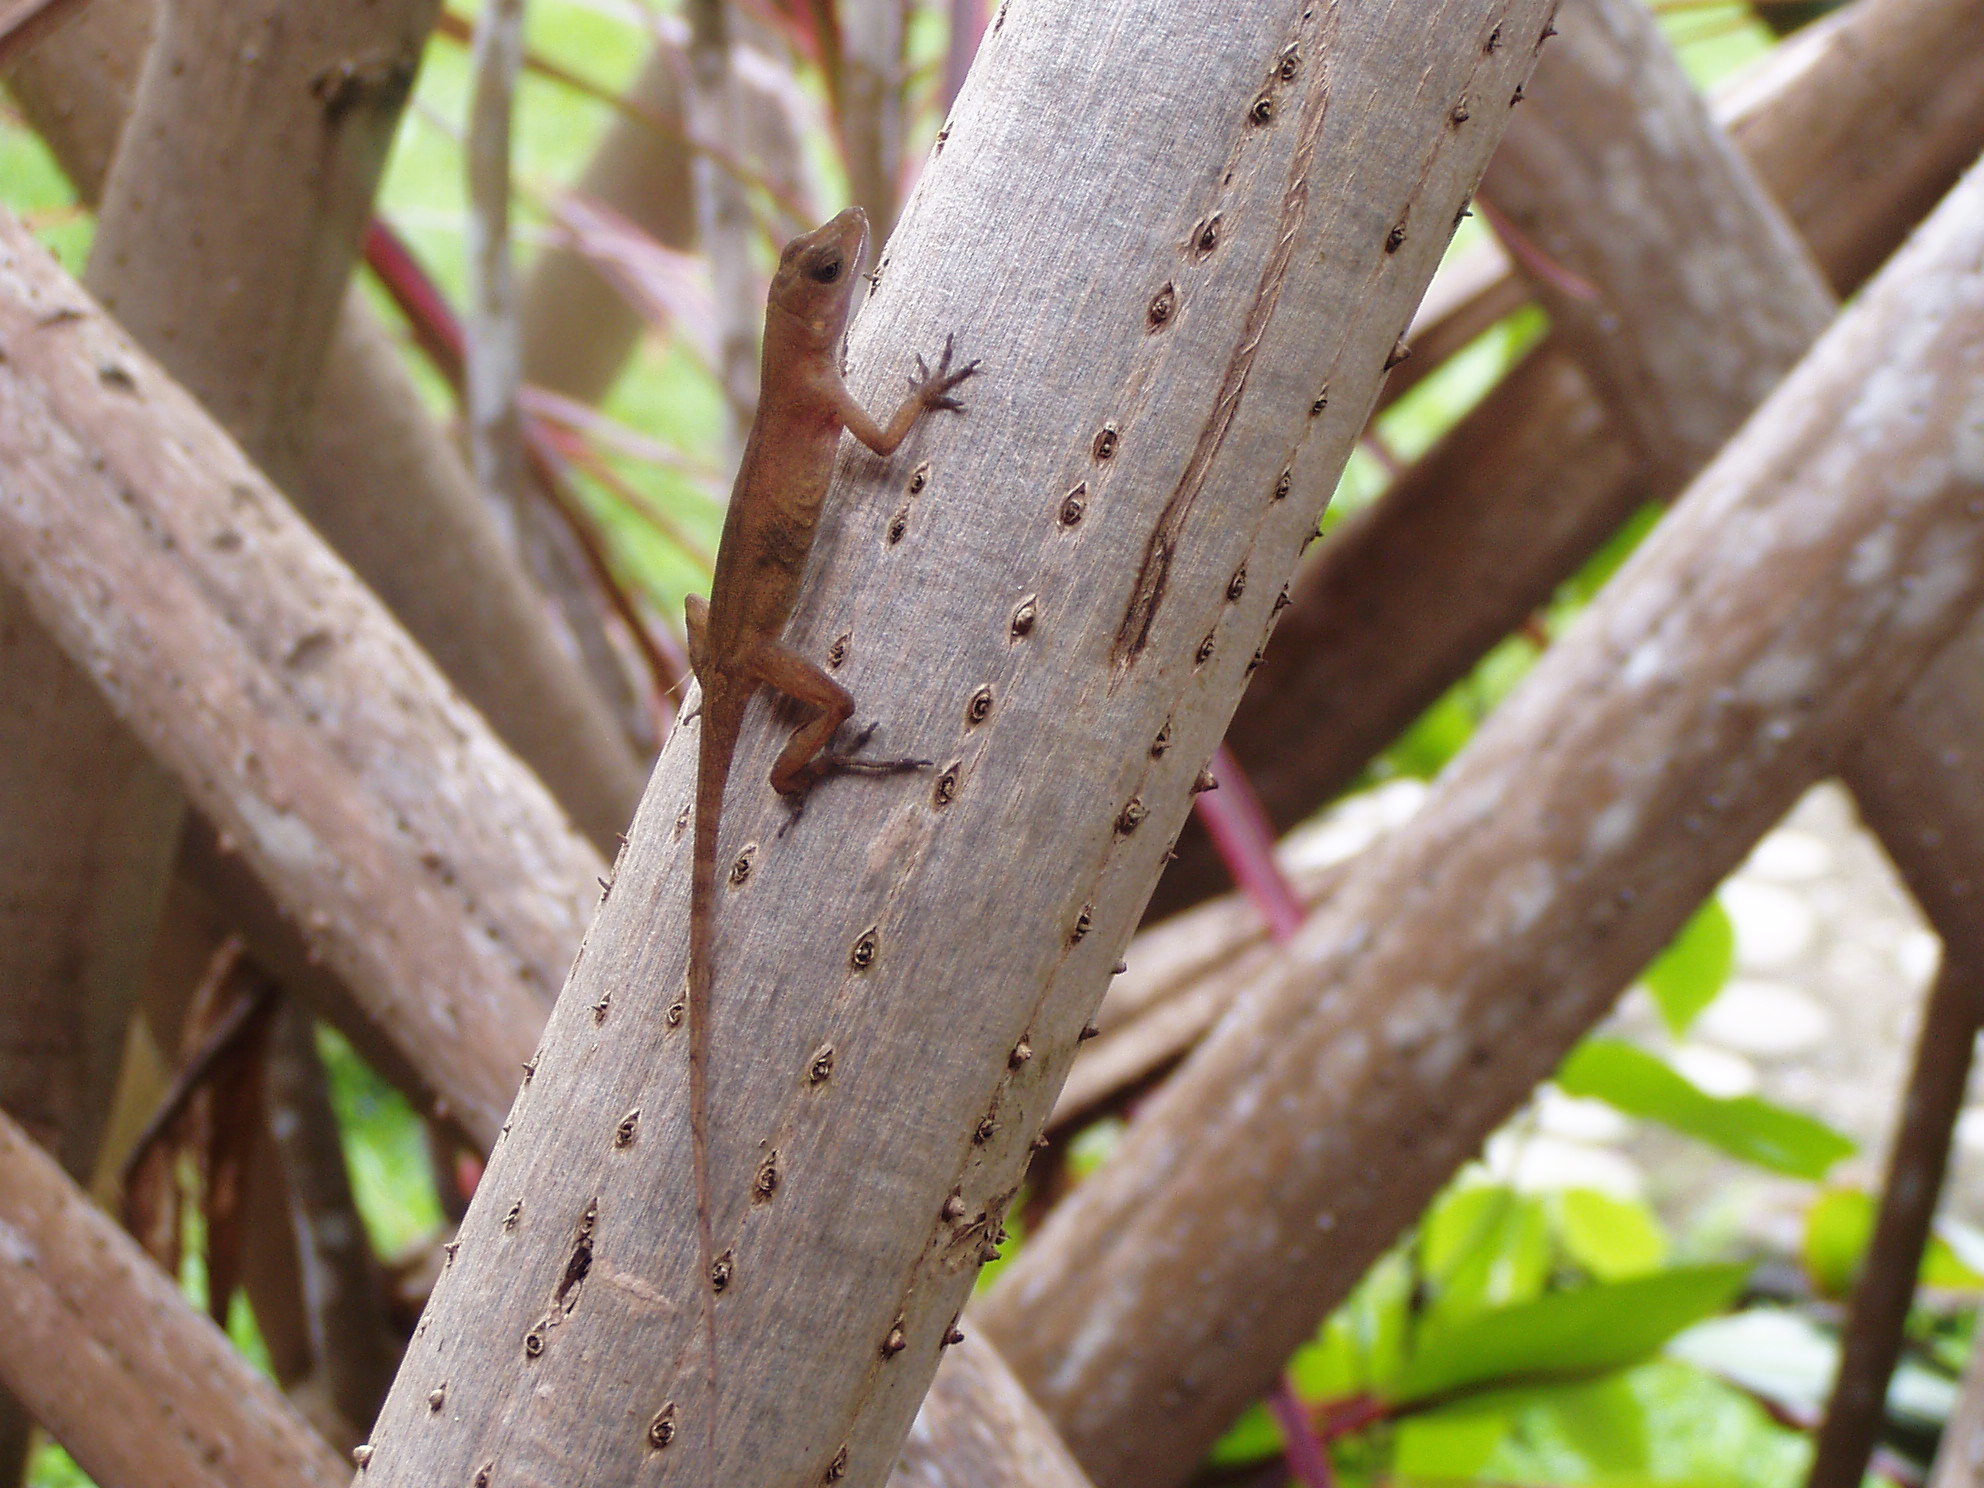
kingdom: Animalia
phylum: Chordata
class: Squamata
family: Dactyloidae
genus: Anolis
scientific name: Anolis cupreus
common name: Copper anole
